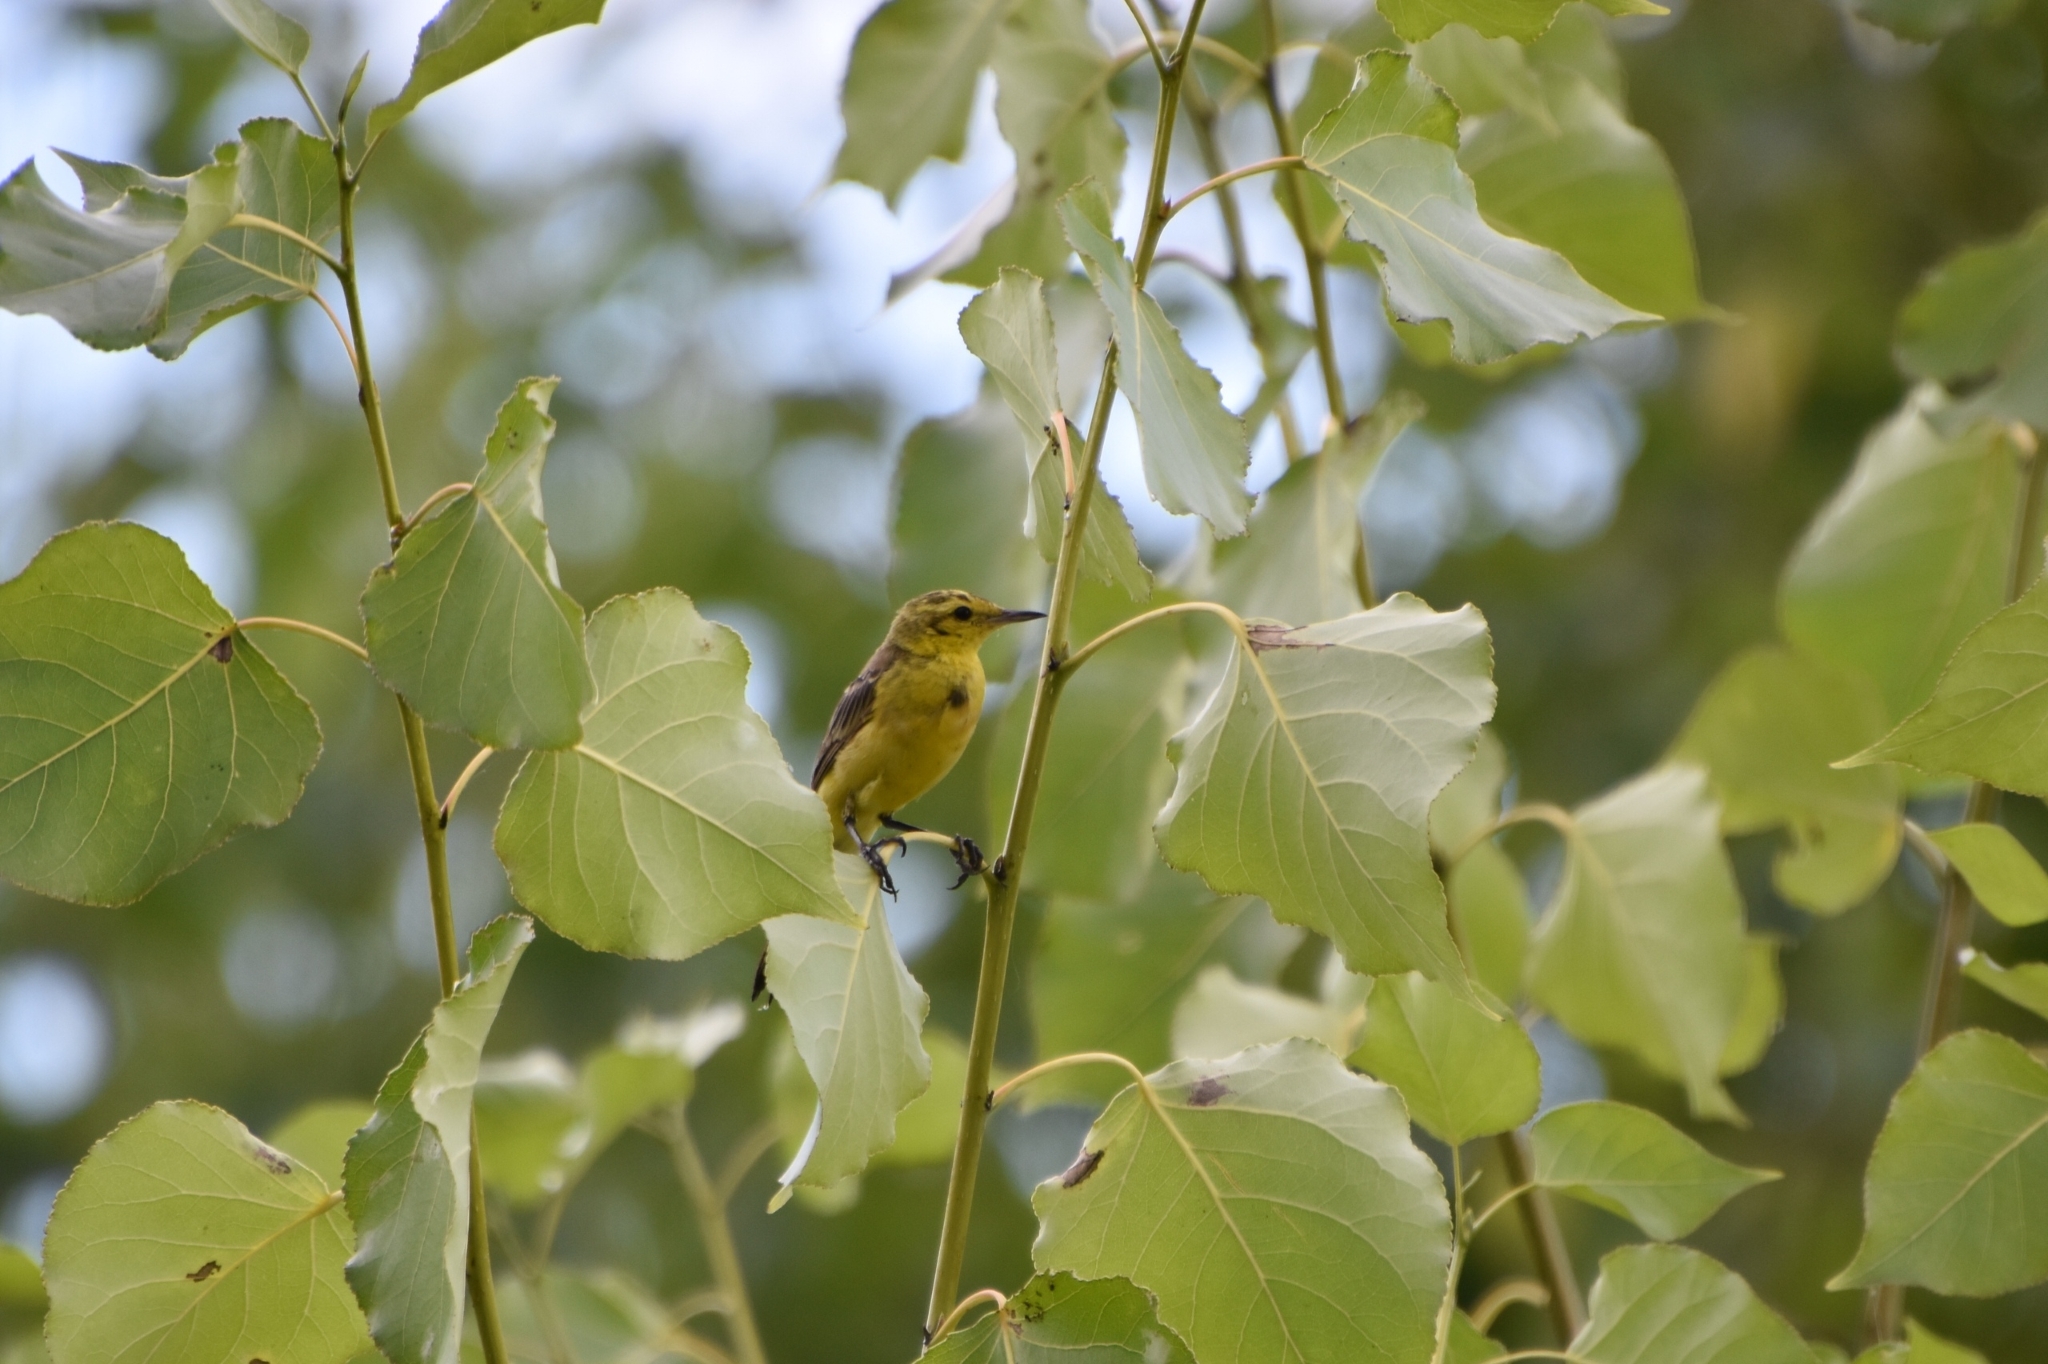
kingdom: Animalia
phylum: Chordata
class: Aves
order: Passeriformes
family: Motacillidae
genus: Motacilla
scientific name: Motacilla flava
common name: Western yellow wagtail
